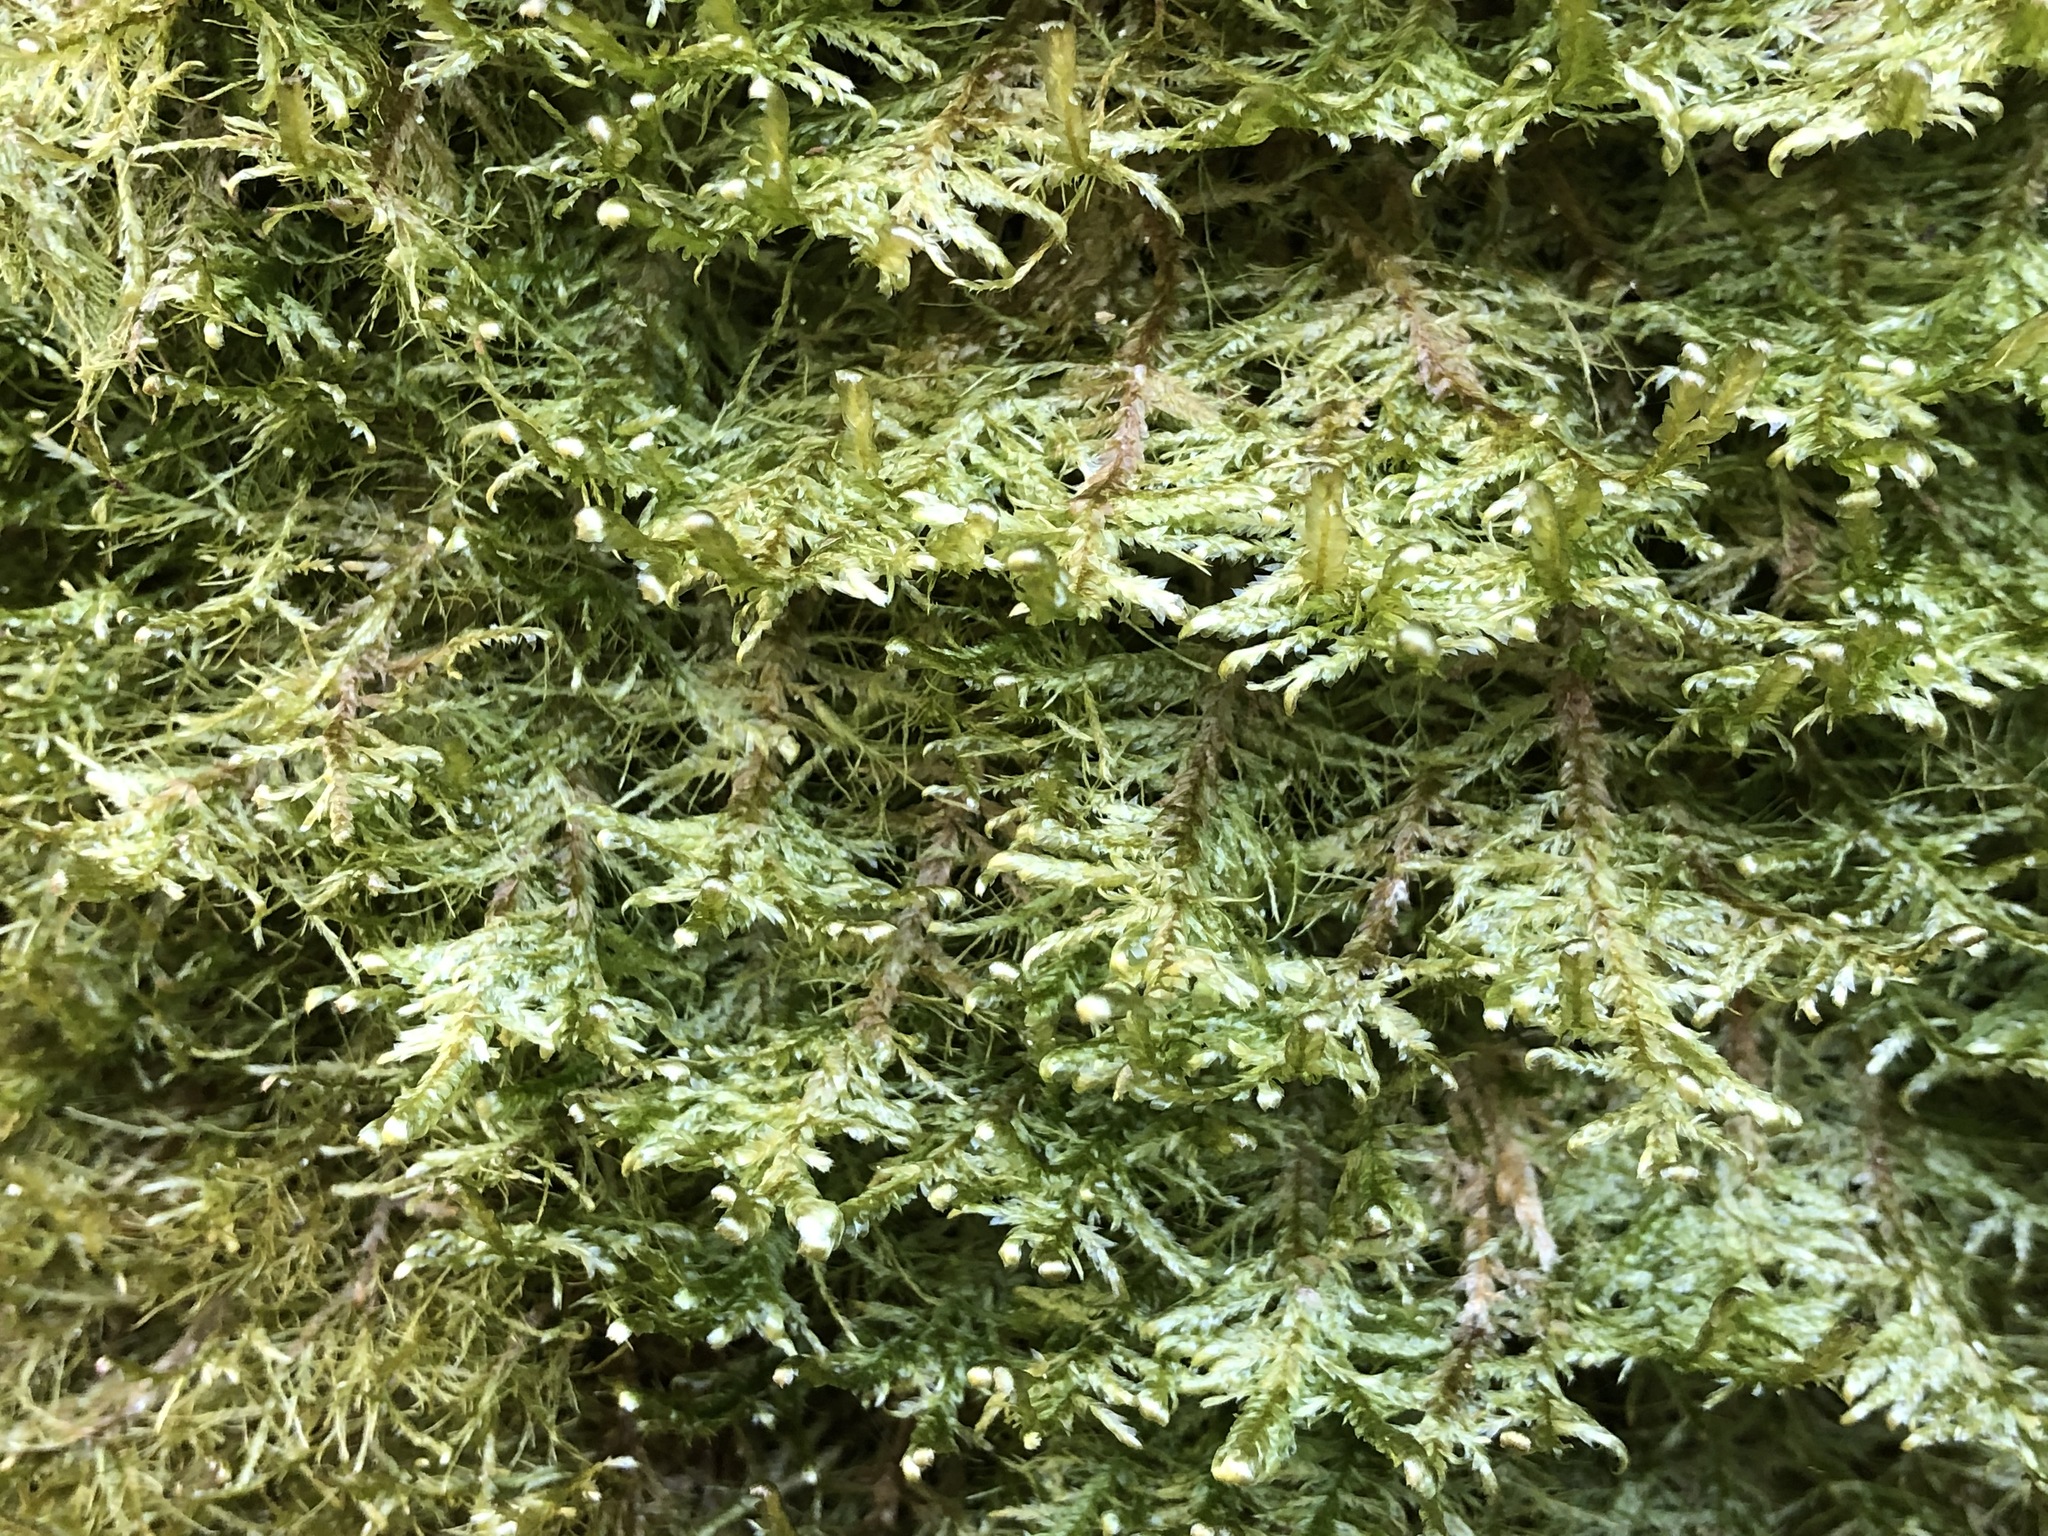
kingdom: Plantae
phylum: Bryophyta
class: Bryopsida
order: Hypnales
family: Neckeraceae
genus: Alleniella
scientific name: Alleniella complanata
